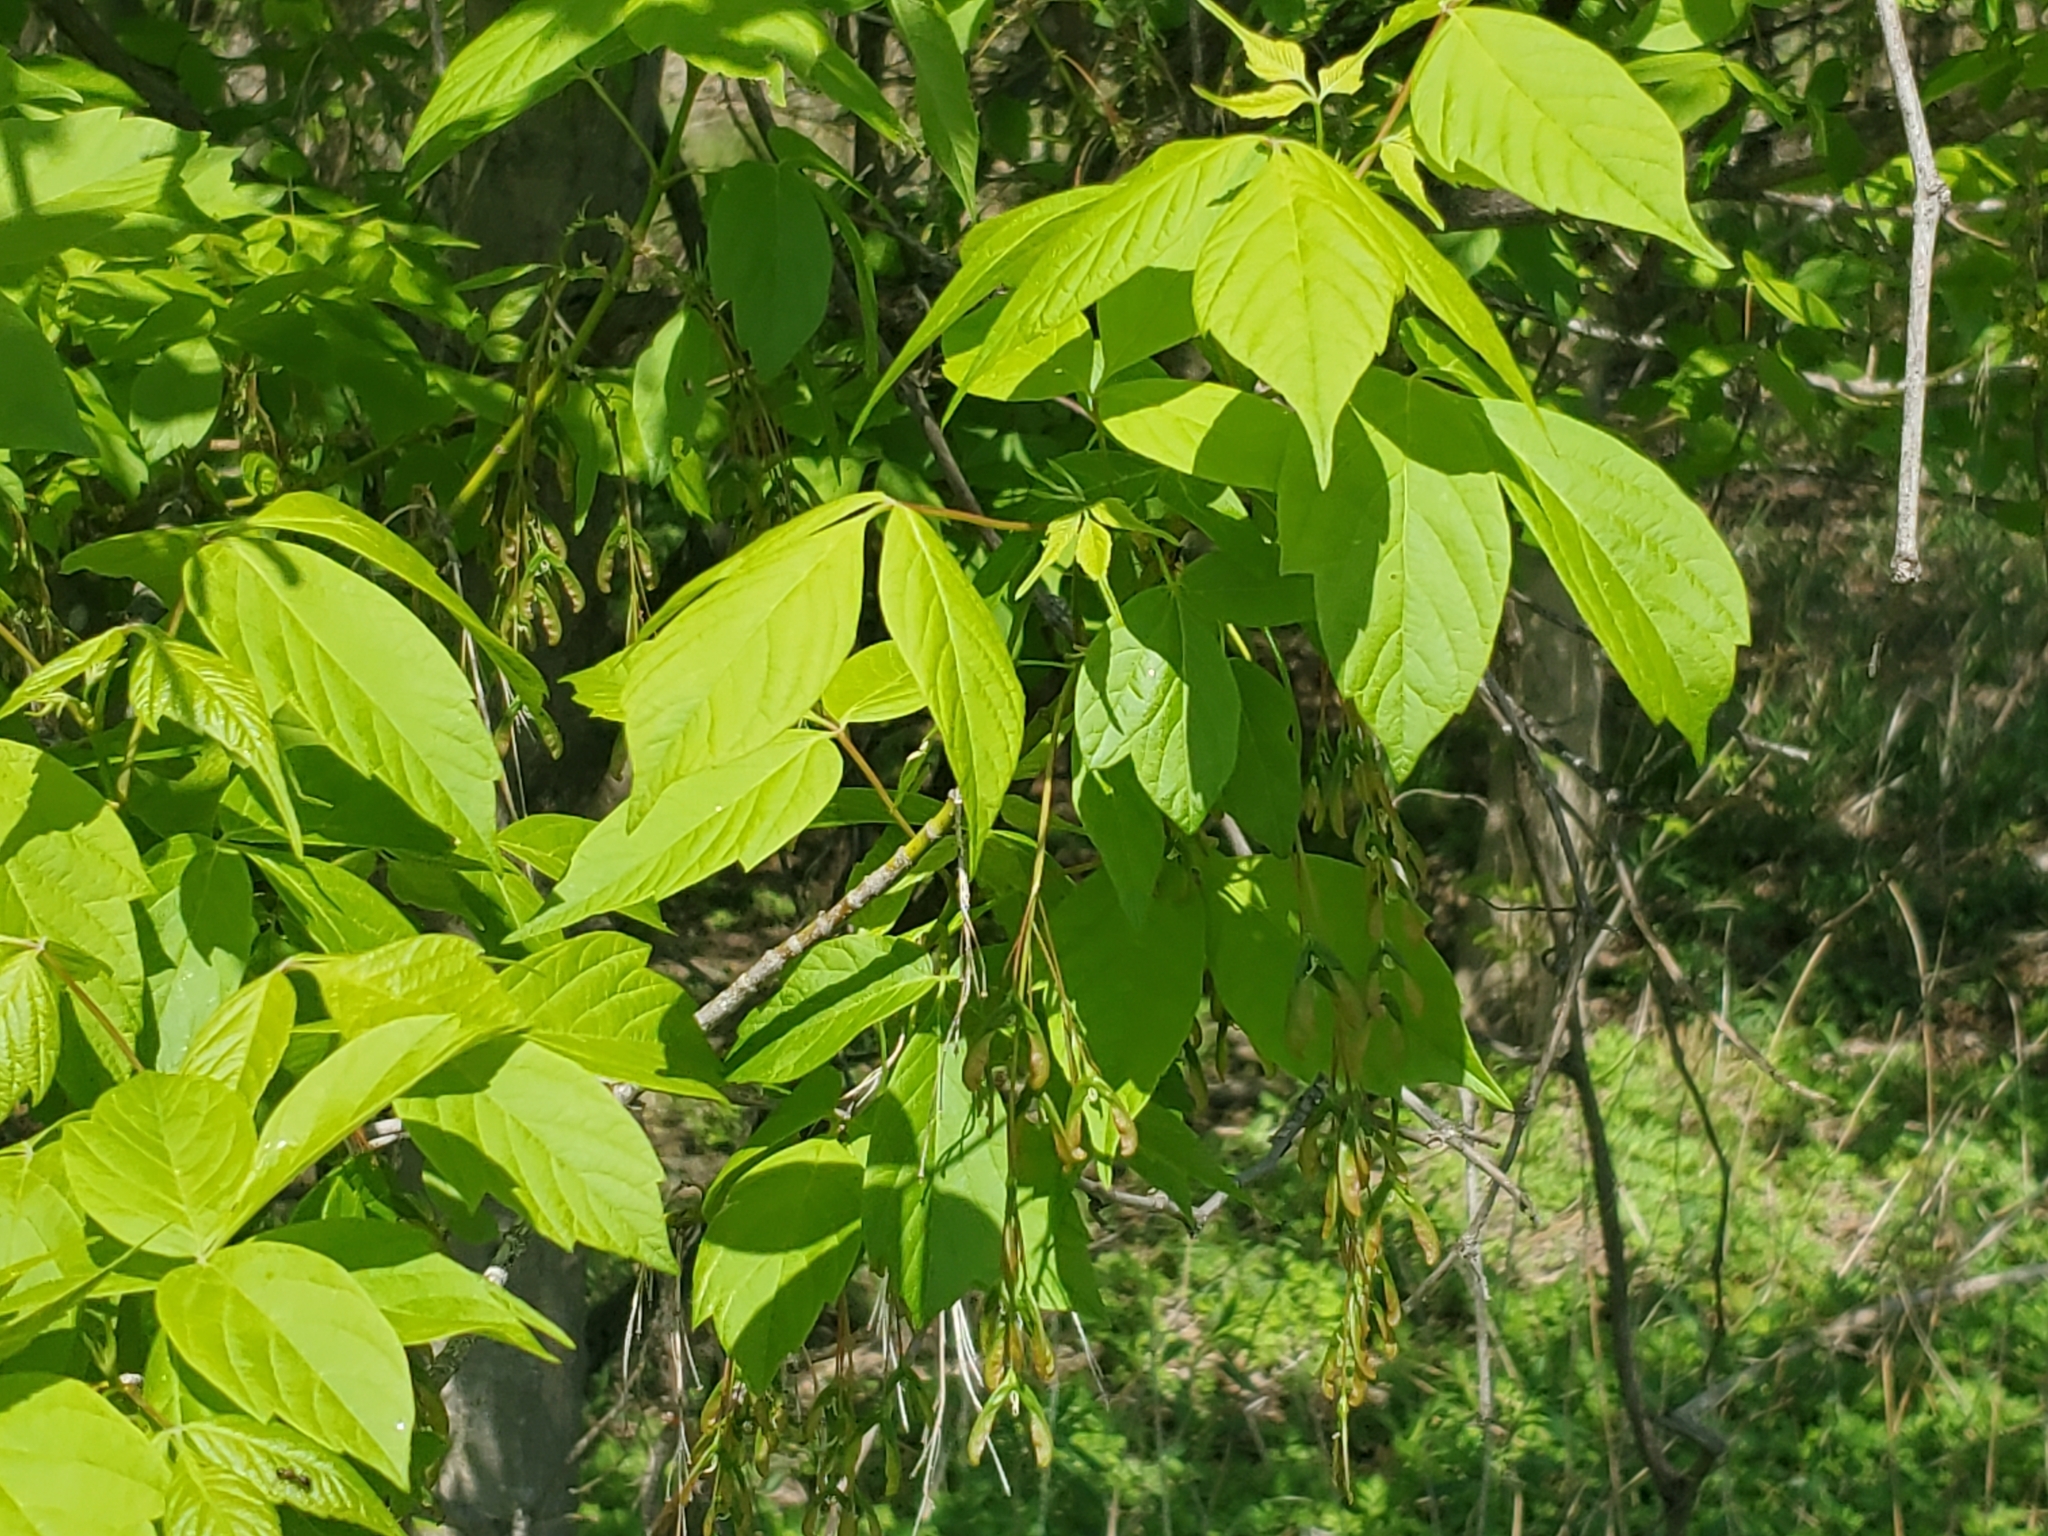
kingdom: Plantae
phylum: Tracheophyta
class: Magnoliopsida
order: Sapindales
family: Sapindaceae
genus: Acer
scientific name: Acer negundo
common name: Ashleaf maple
